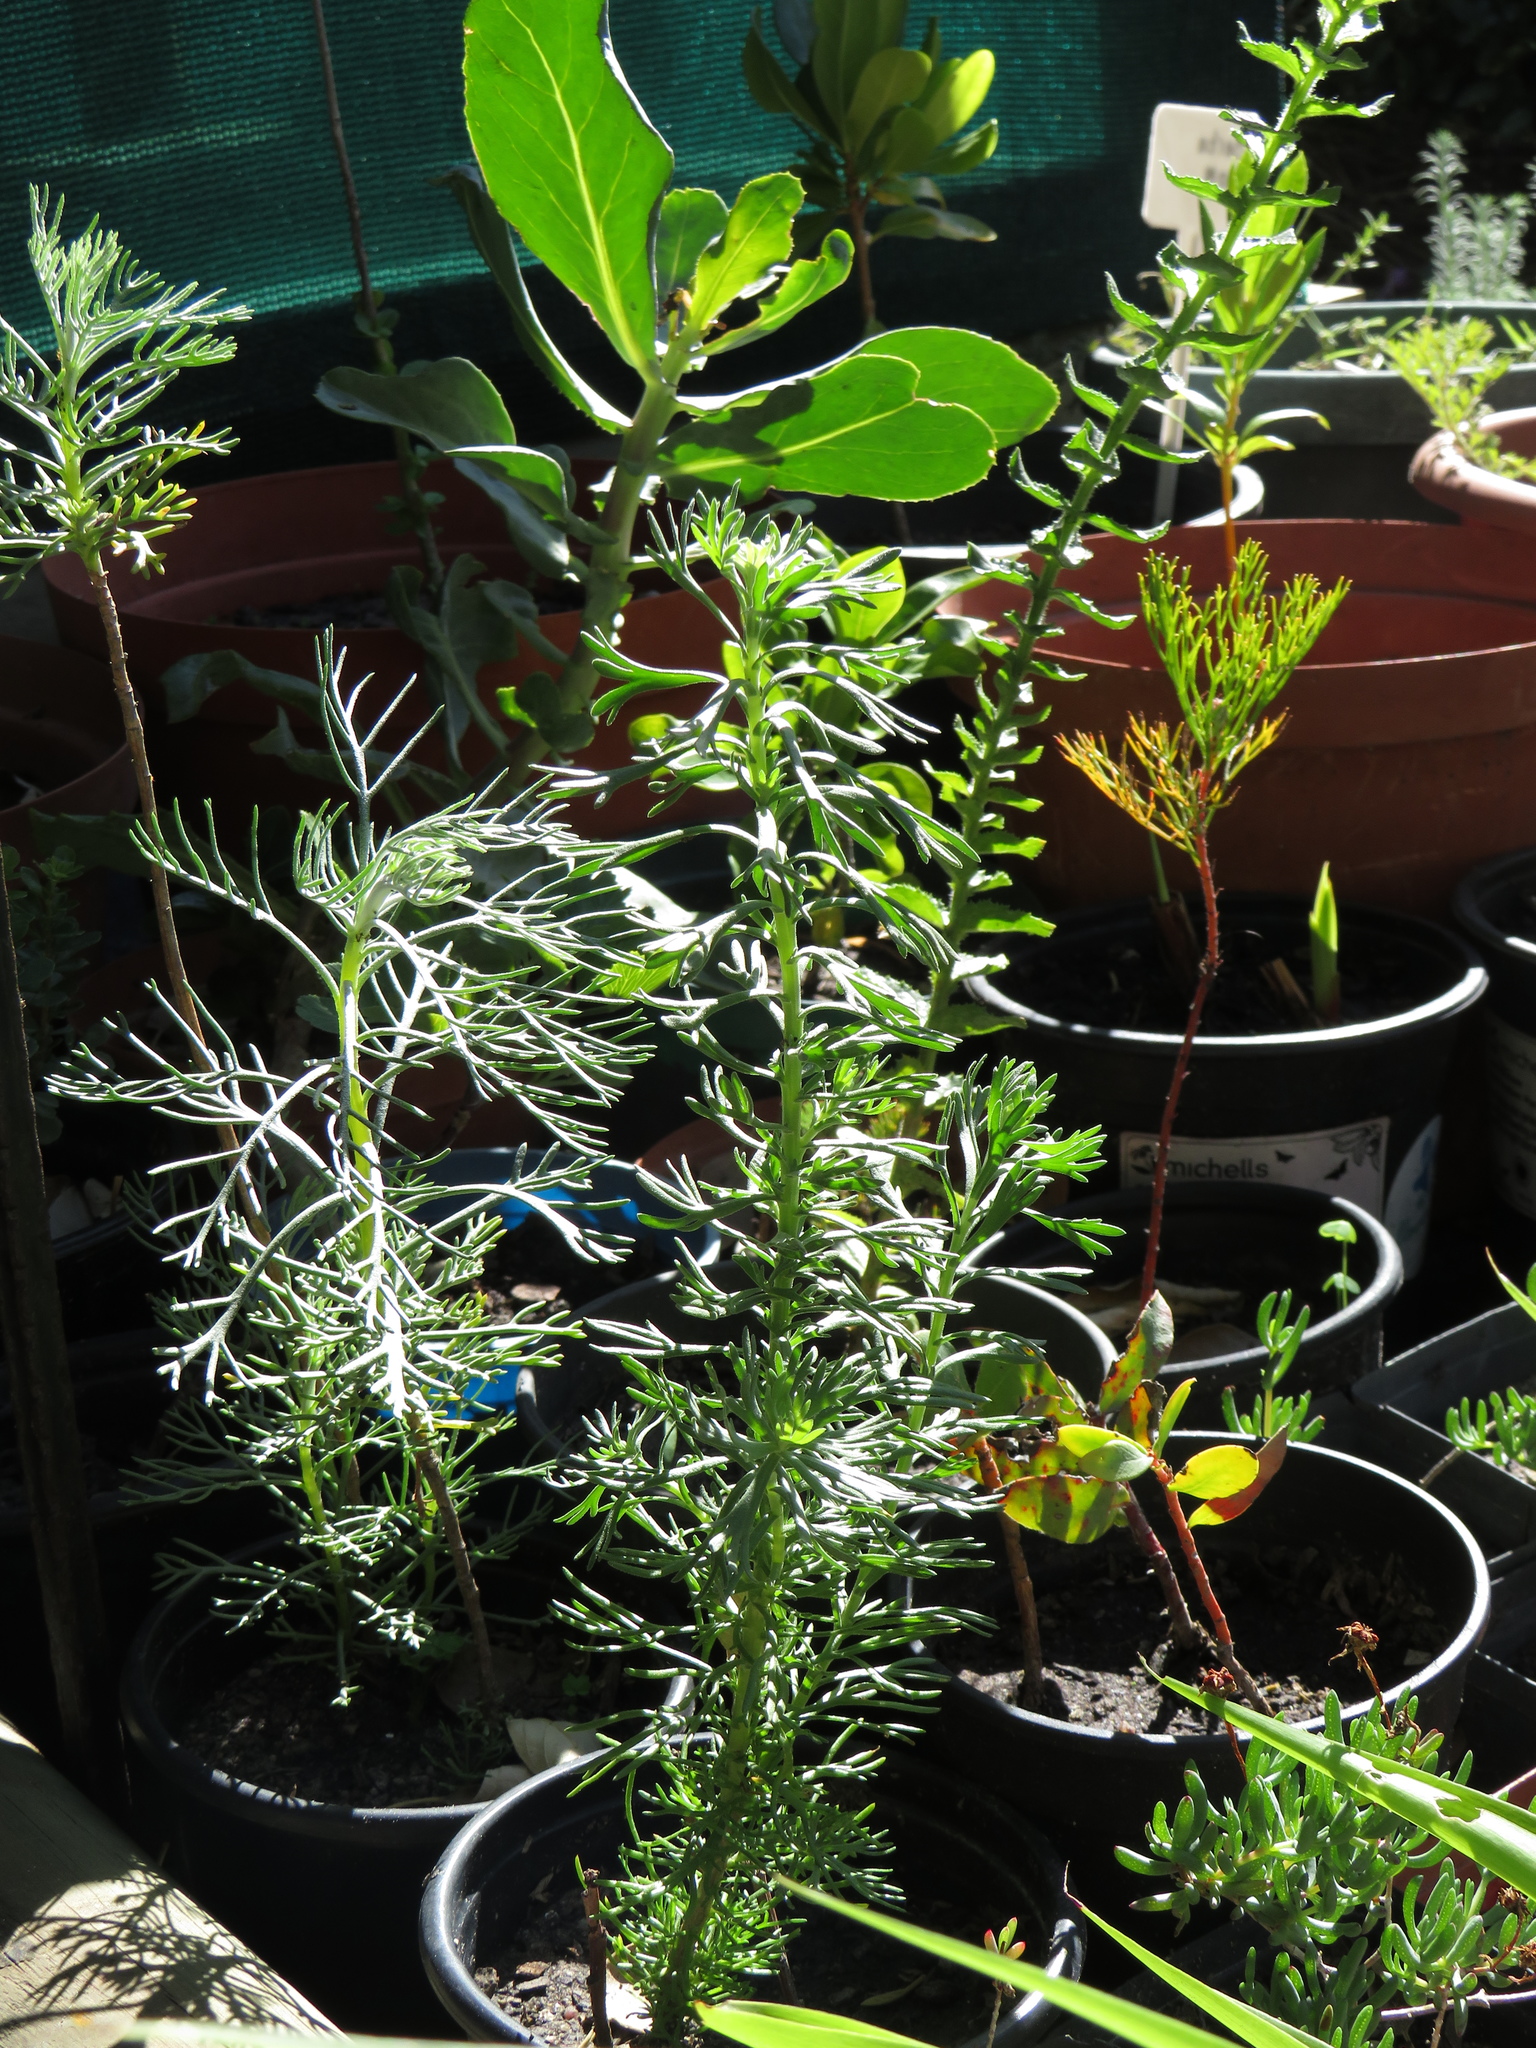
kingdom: Plantae
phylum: Tracheophyta
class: Magnoliopsida
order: Asterales
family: Asteraceae
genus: Athanasia
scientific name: Athanasia crithmifolia
